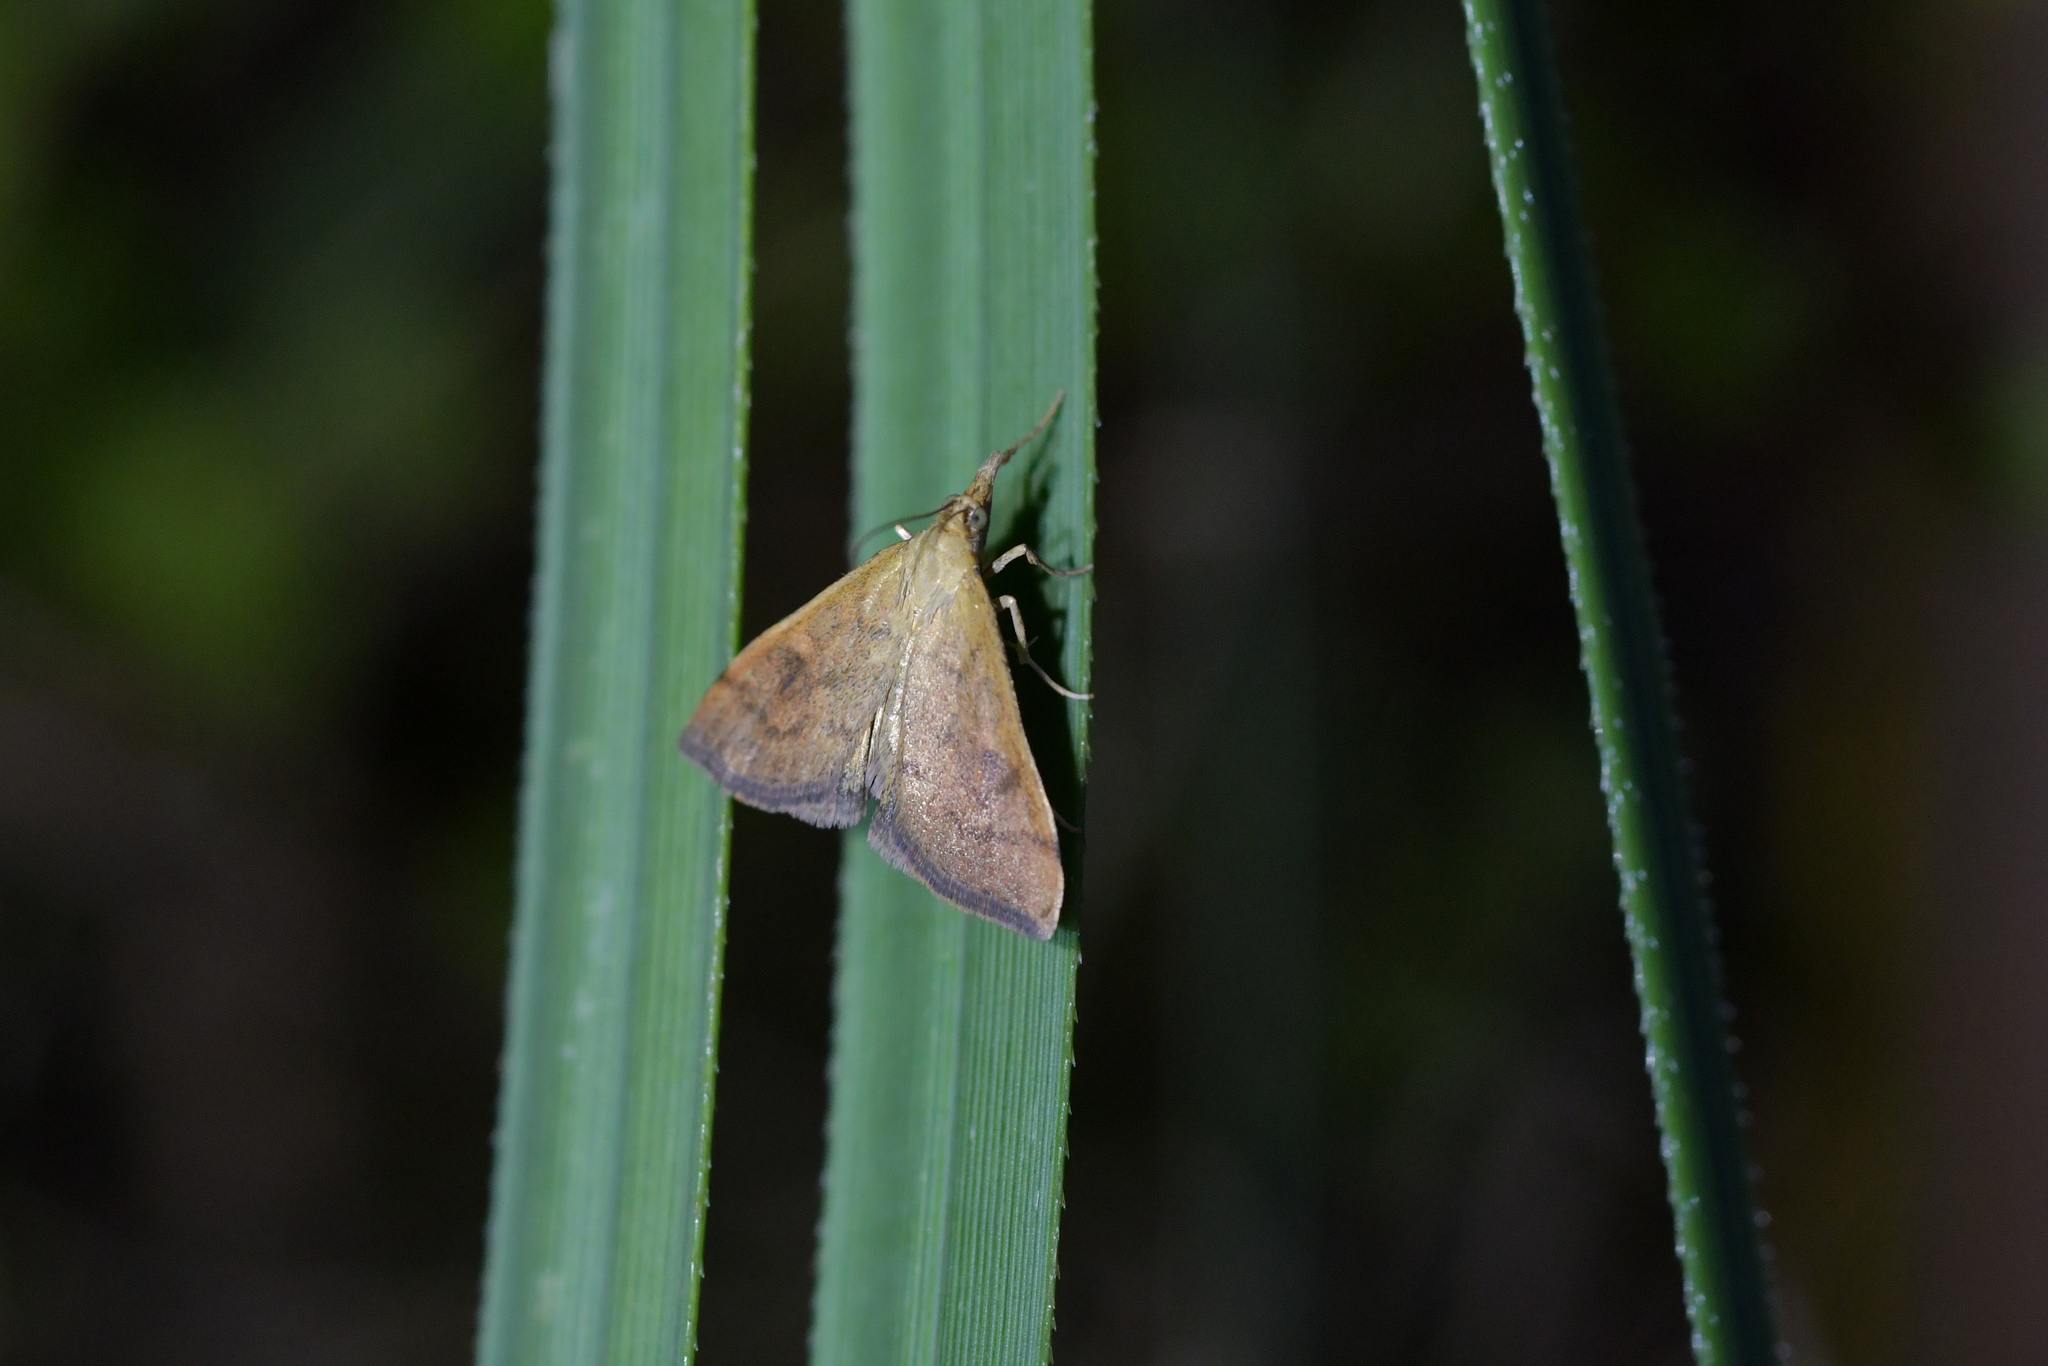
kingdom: Animalia
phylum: Arthropoda
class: Insecta
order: Lepidoptera
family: Crambidae
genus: Udea
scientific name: Udea Mnesictena flavidalis
